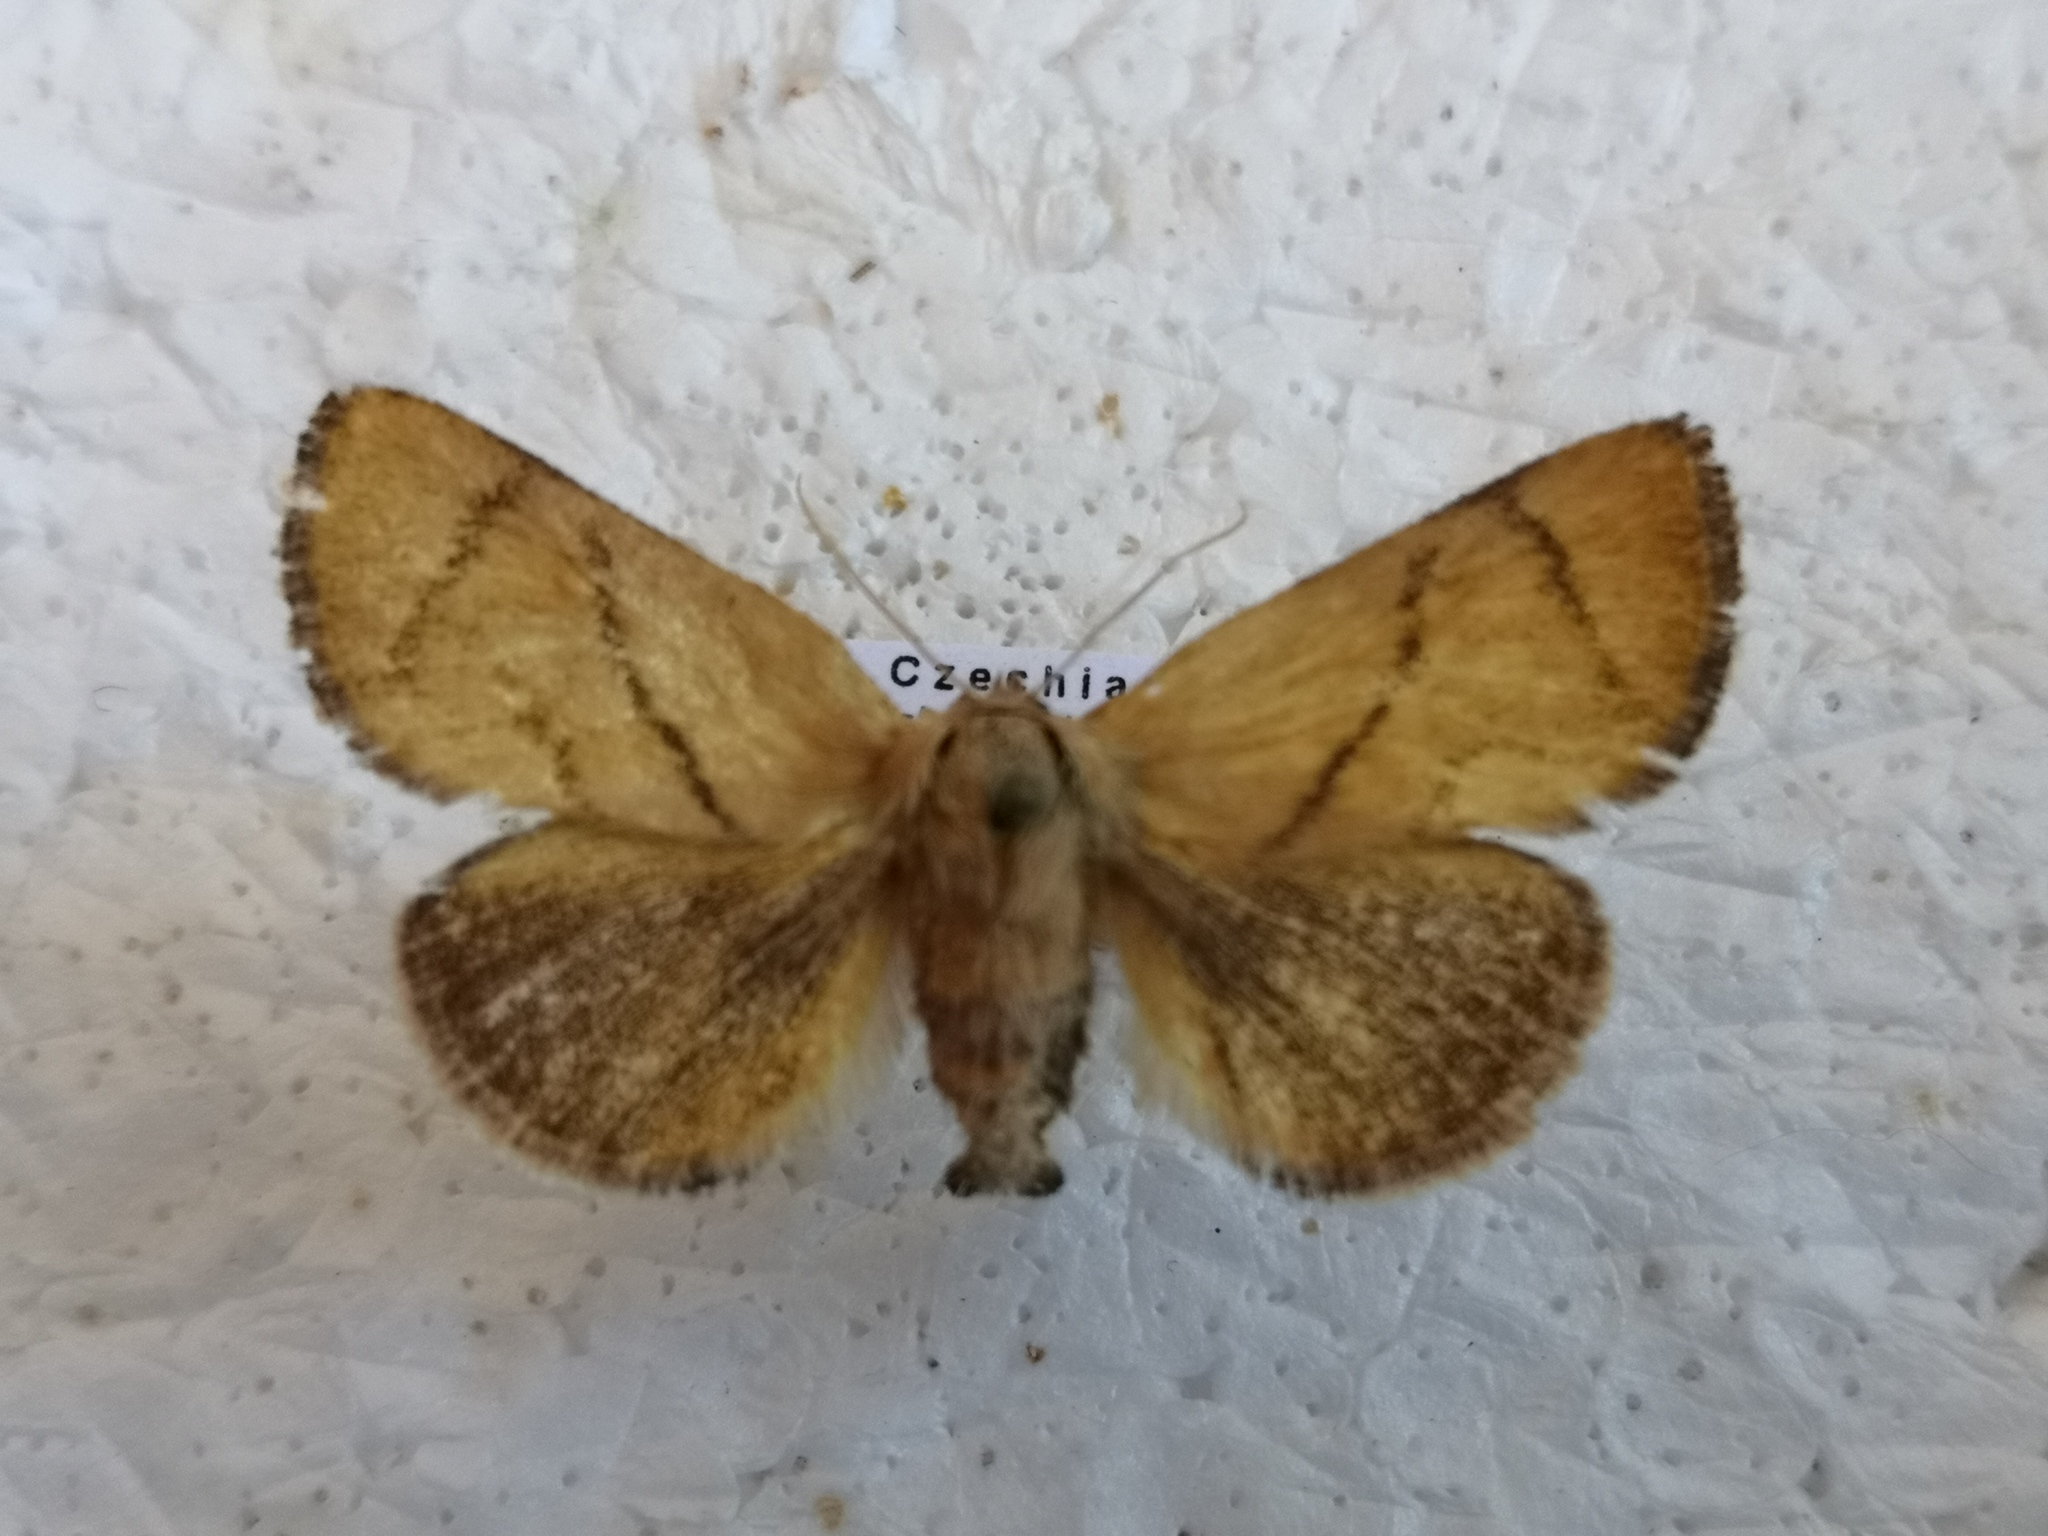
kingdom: Animalia
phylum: Arthropoda
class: Insecta
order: Lepidoptera
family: Limacodidae
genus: Apoda
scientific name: Apoda limacodes
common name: Festoon
